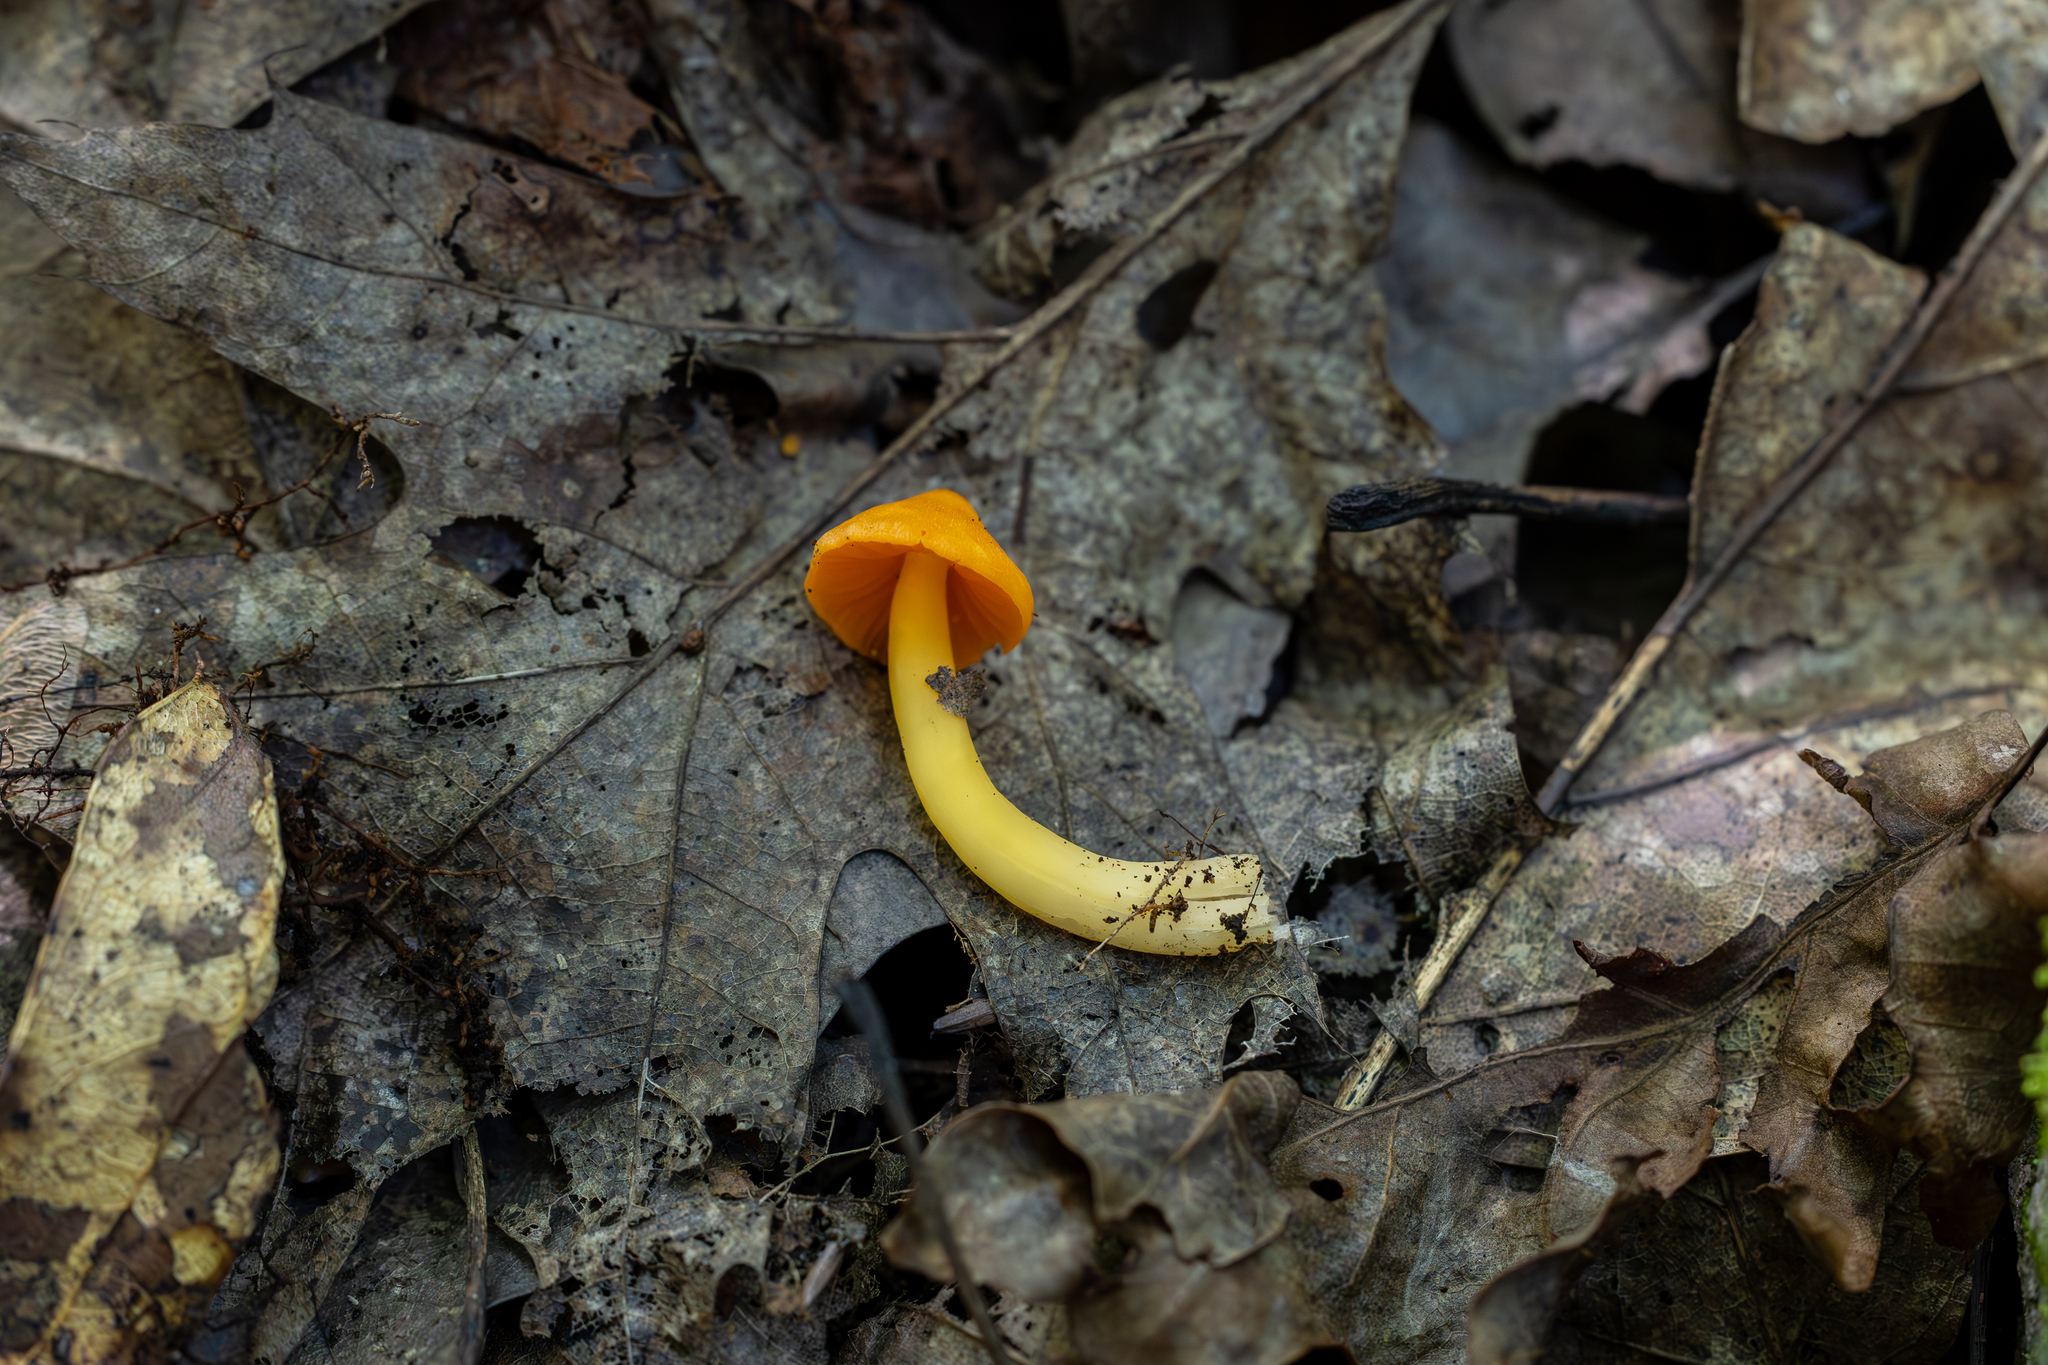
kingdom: Fungi
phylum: Basidiomycota
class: Agaricomycetes
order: Agaricales
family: Hygrophoraceae
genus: Humidicutis
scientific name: Humidicutis marginata
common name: Orange gilled waxcap
